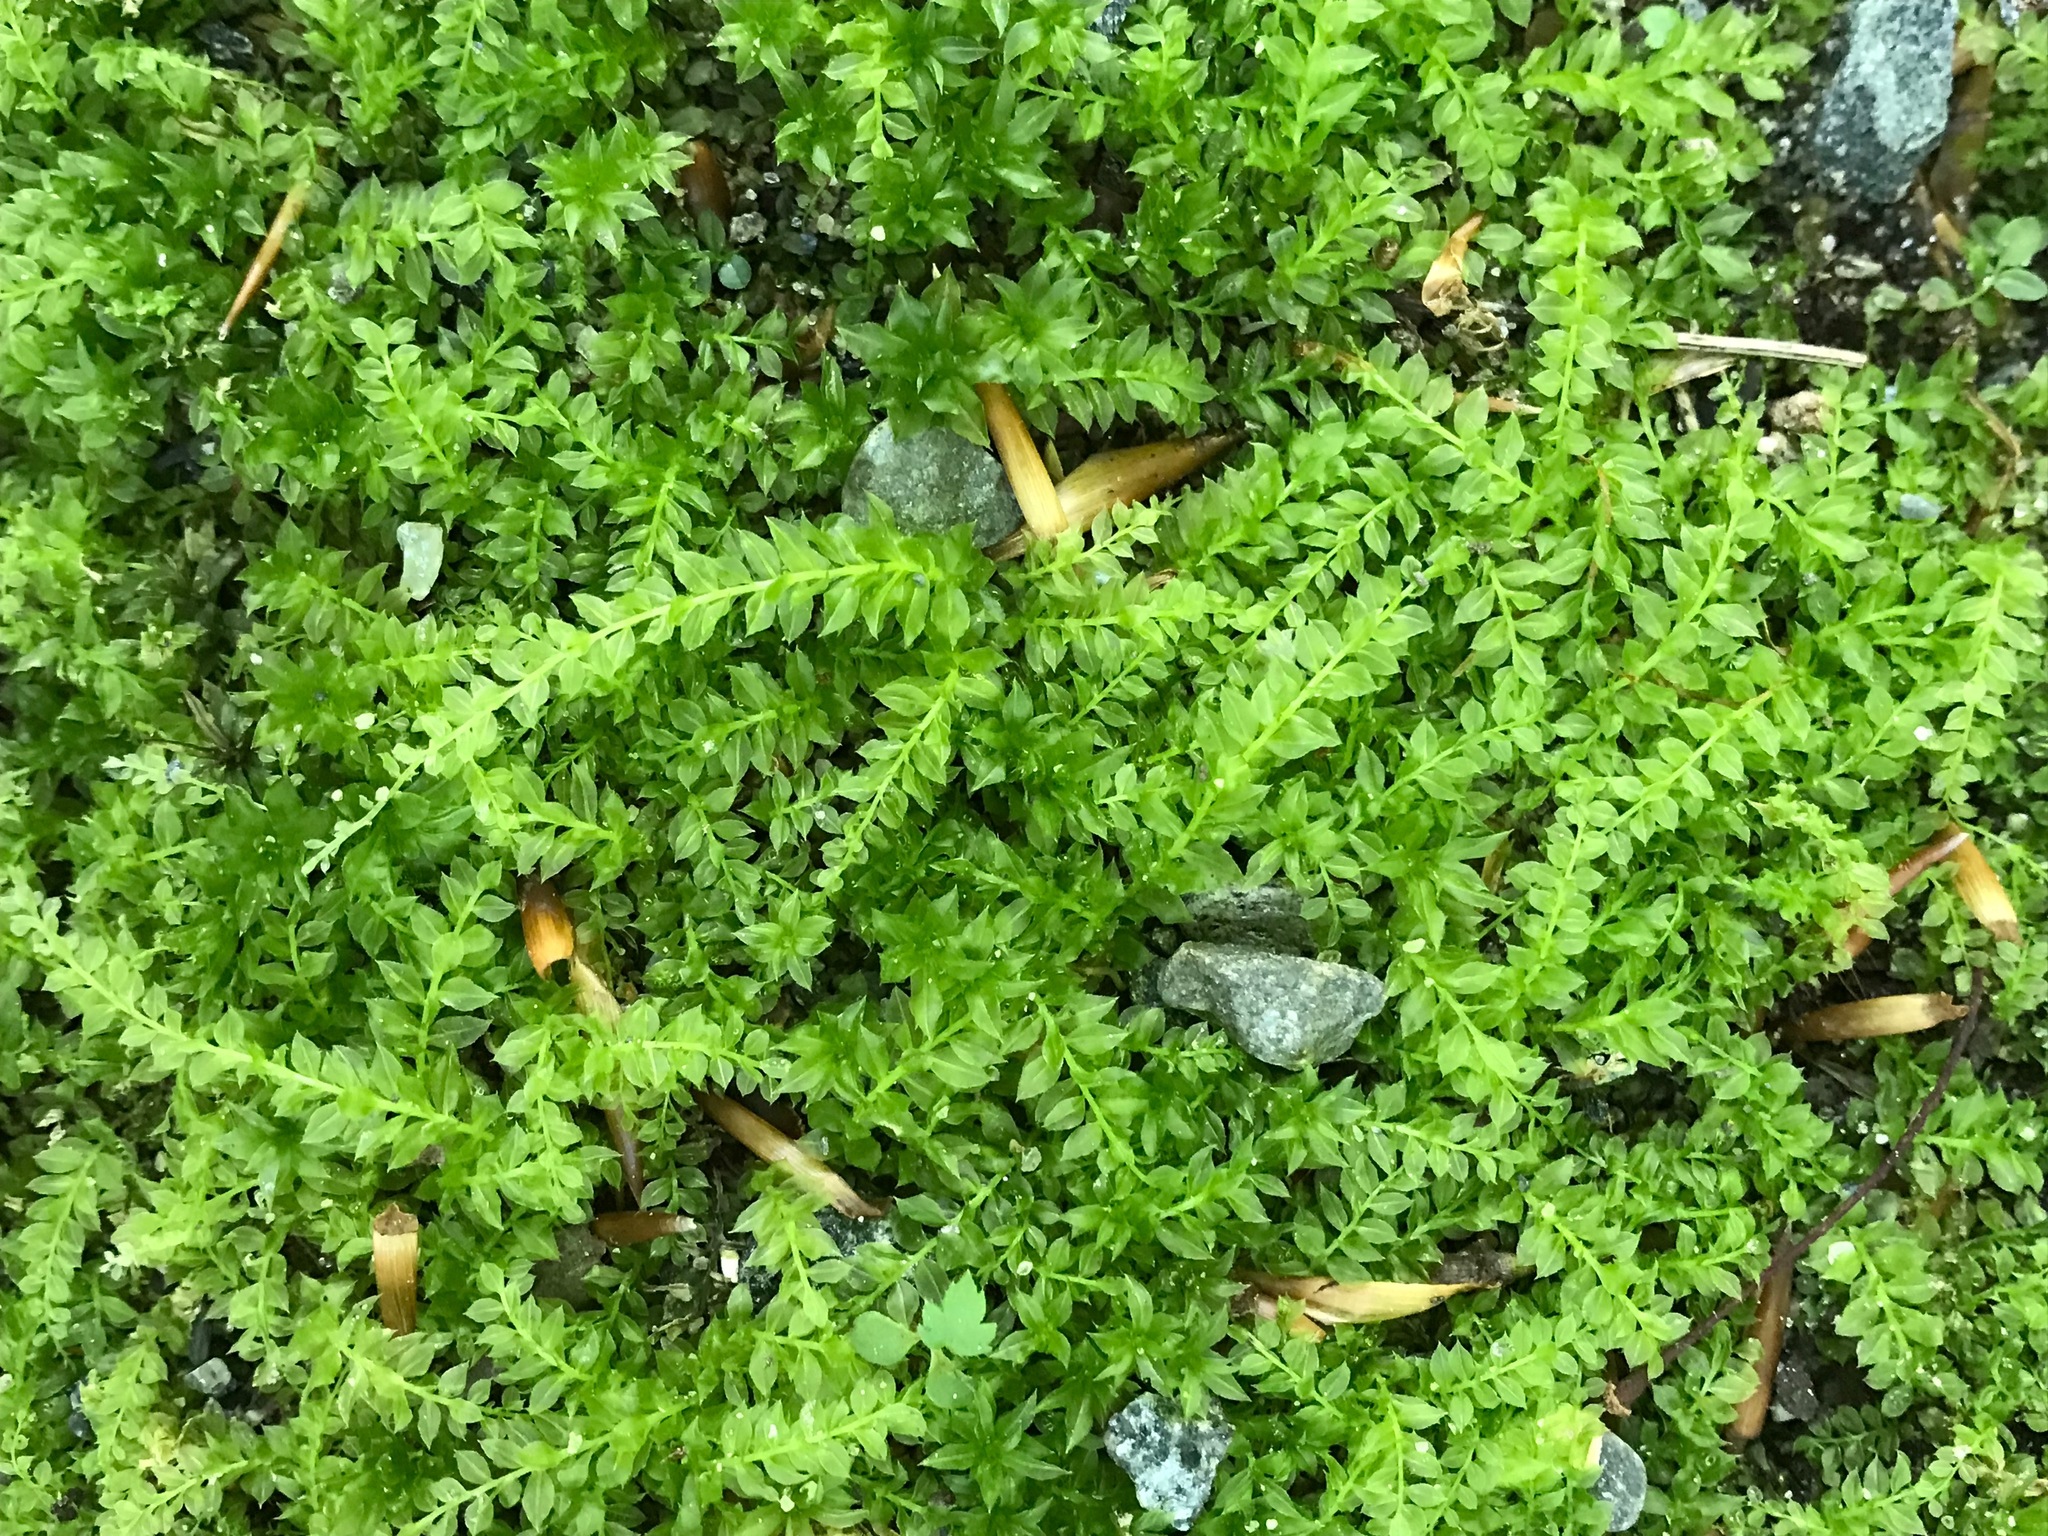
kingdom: Plantae
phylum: Bryophyta
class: Bryopsida
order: Bryales
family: Mniaceae
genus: Plagiomnium
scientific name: Plagiomnium cuspidatum
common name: Woodsy leafy moss
